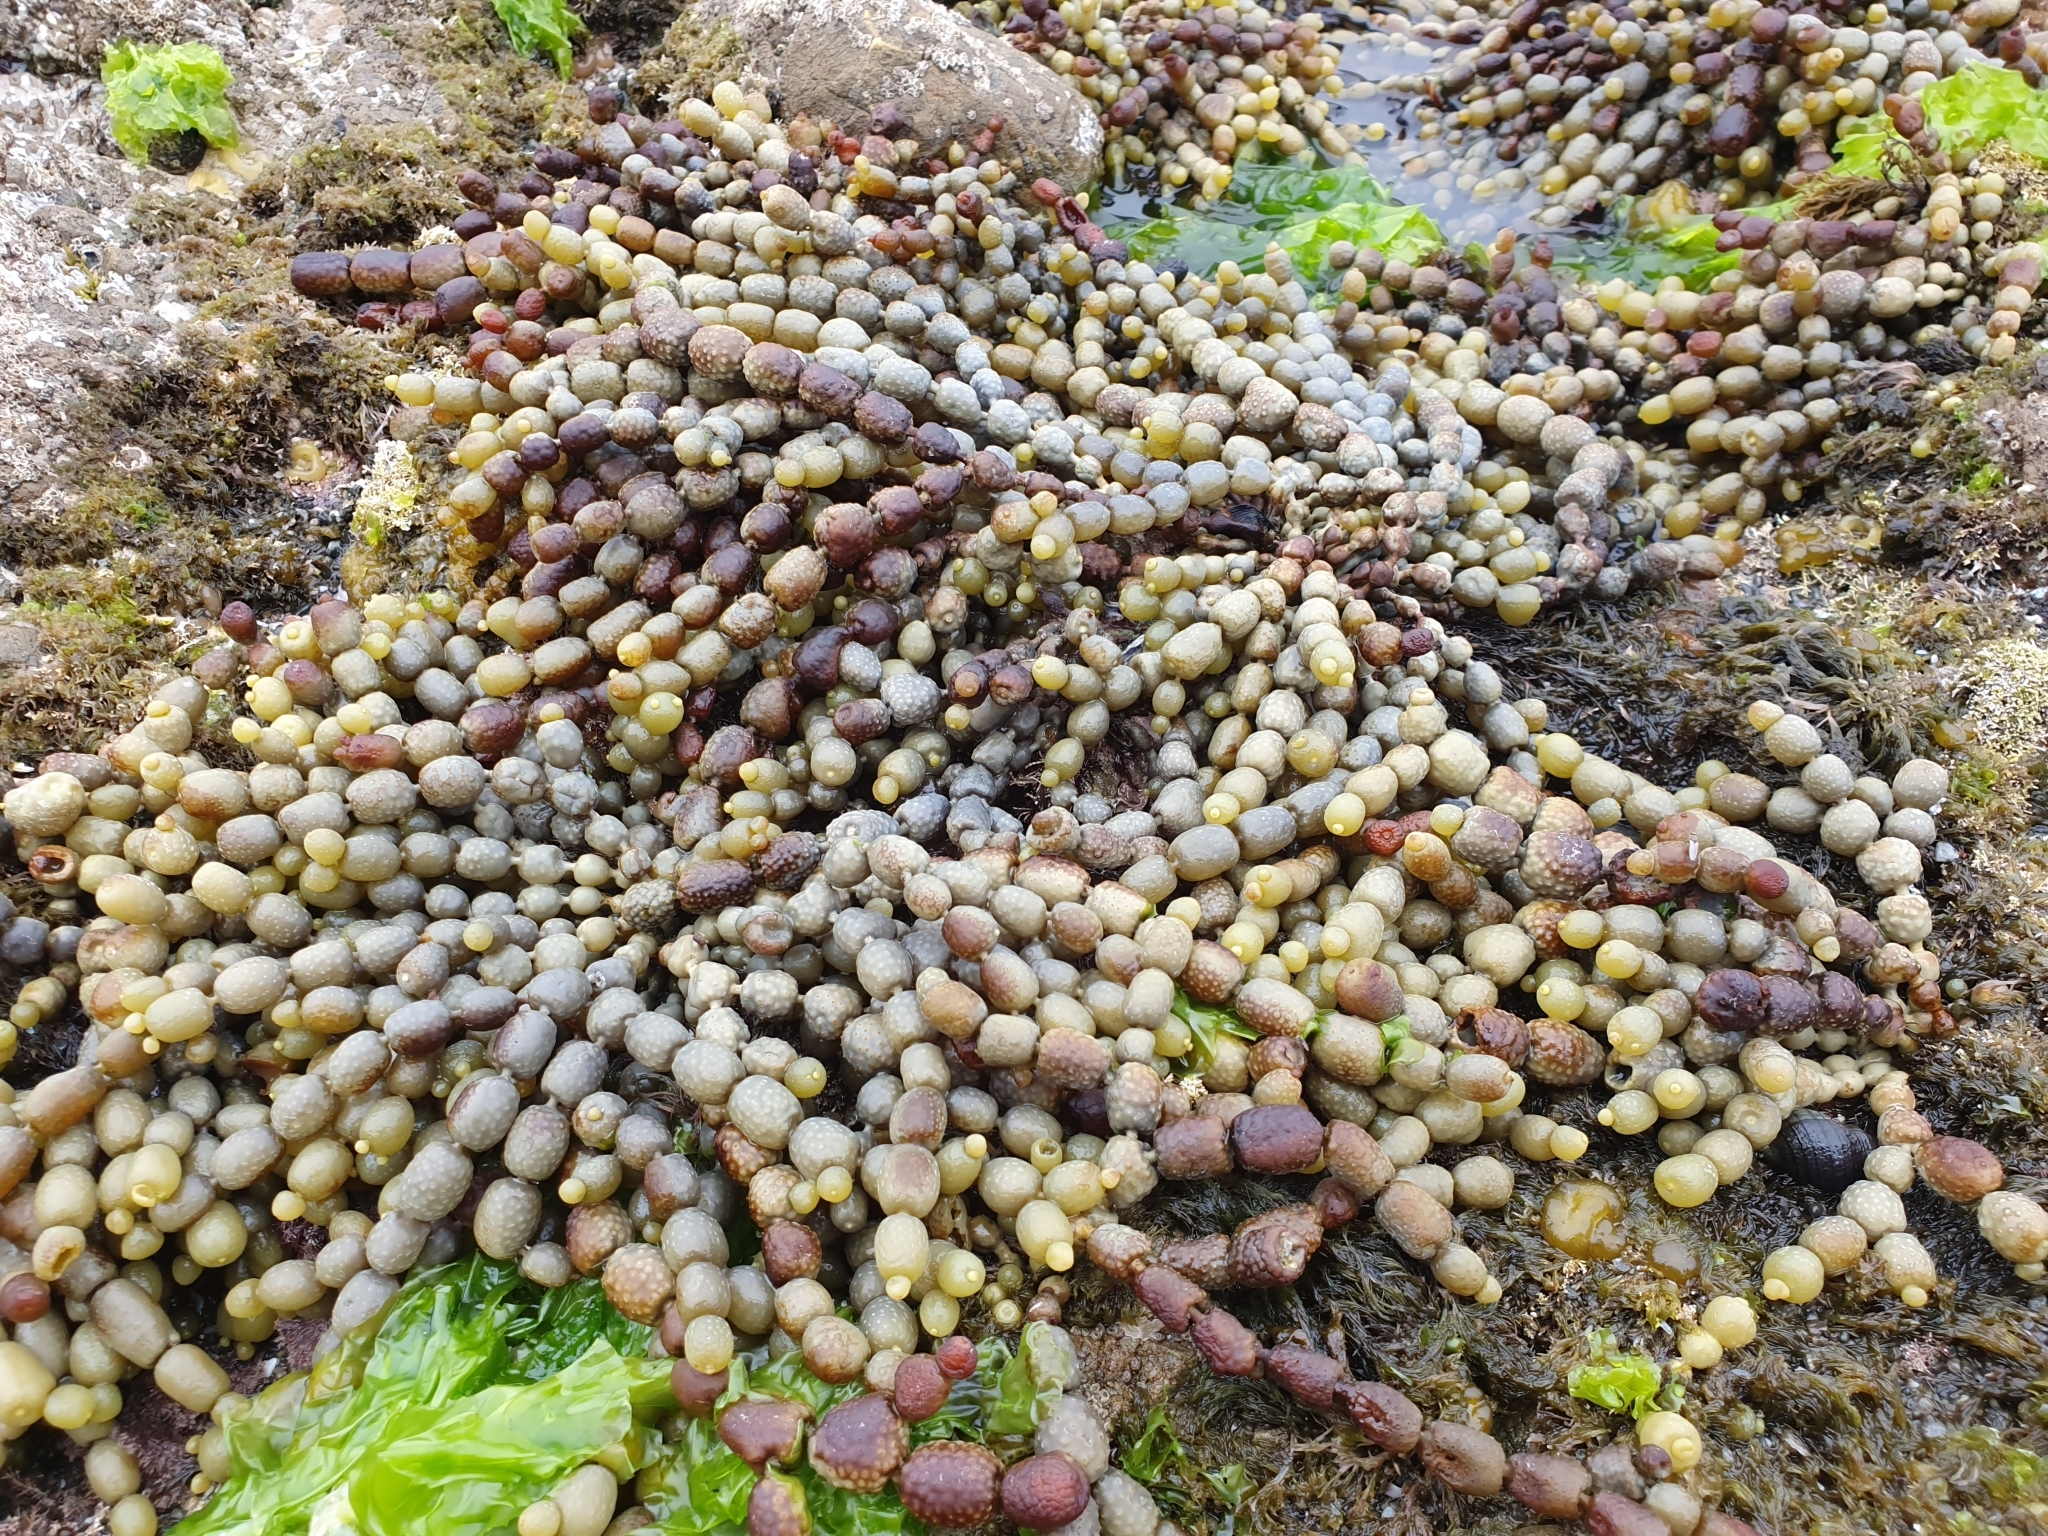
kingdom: Chromista
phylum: Ochrophyta
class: Phaeophyceae
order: Fucales
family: Hormosiraceae
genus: Hormosira
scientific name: Hormosira banksii
